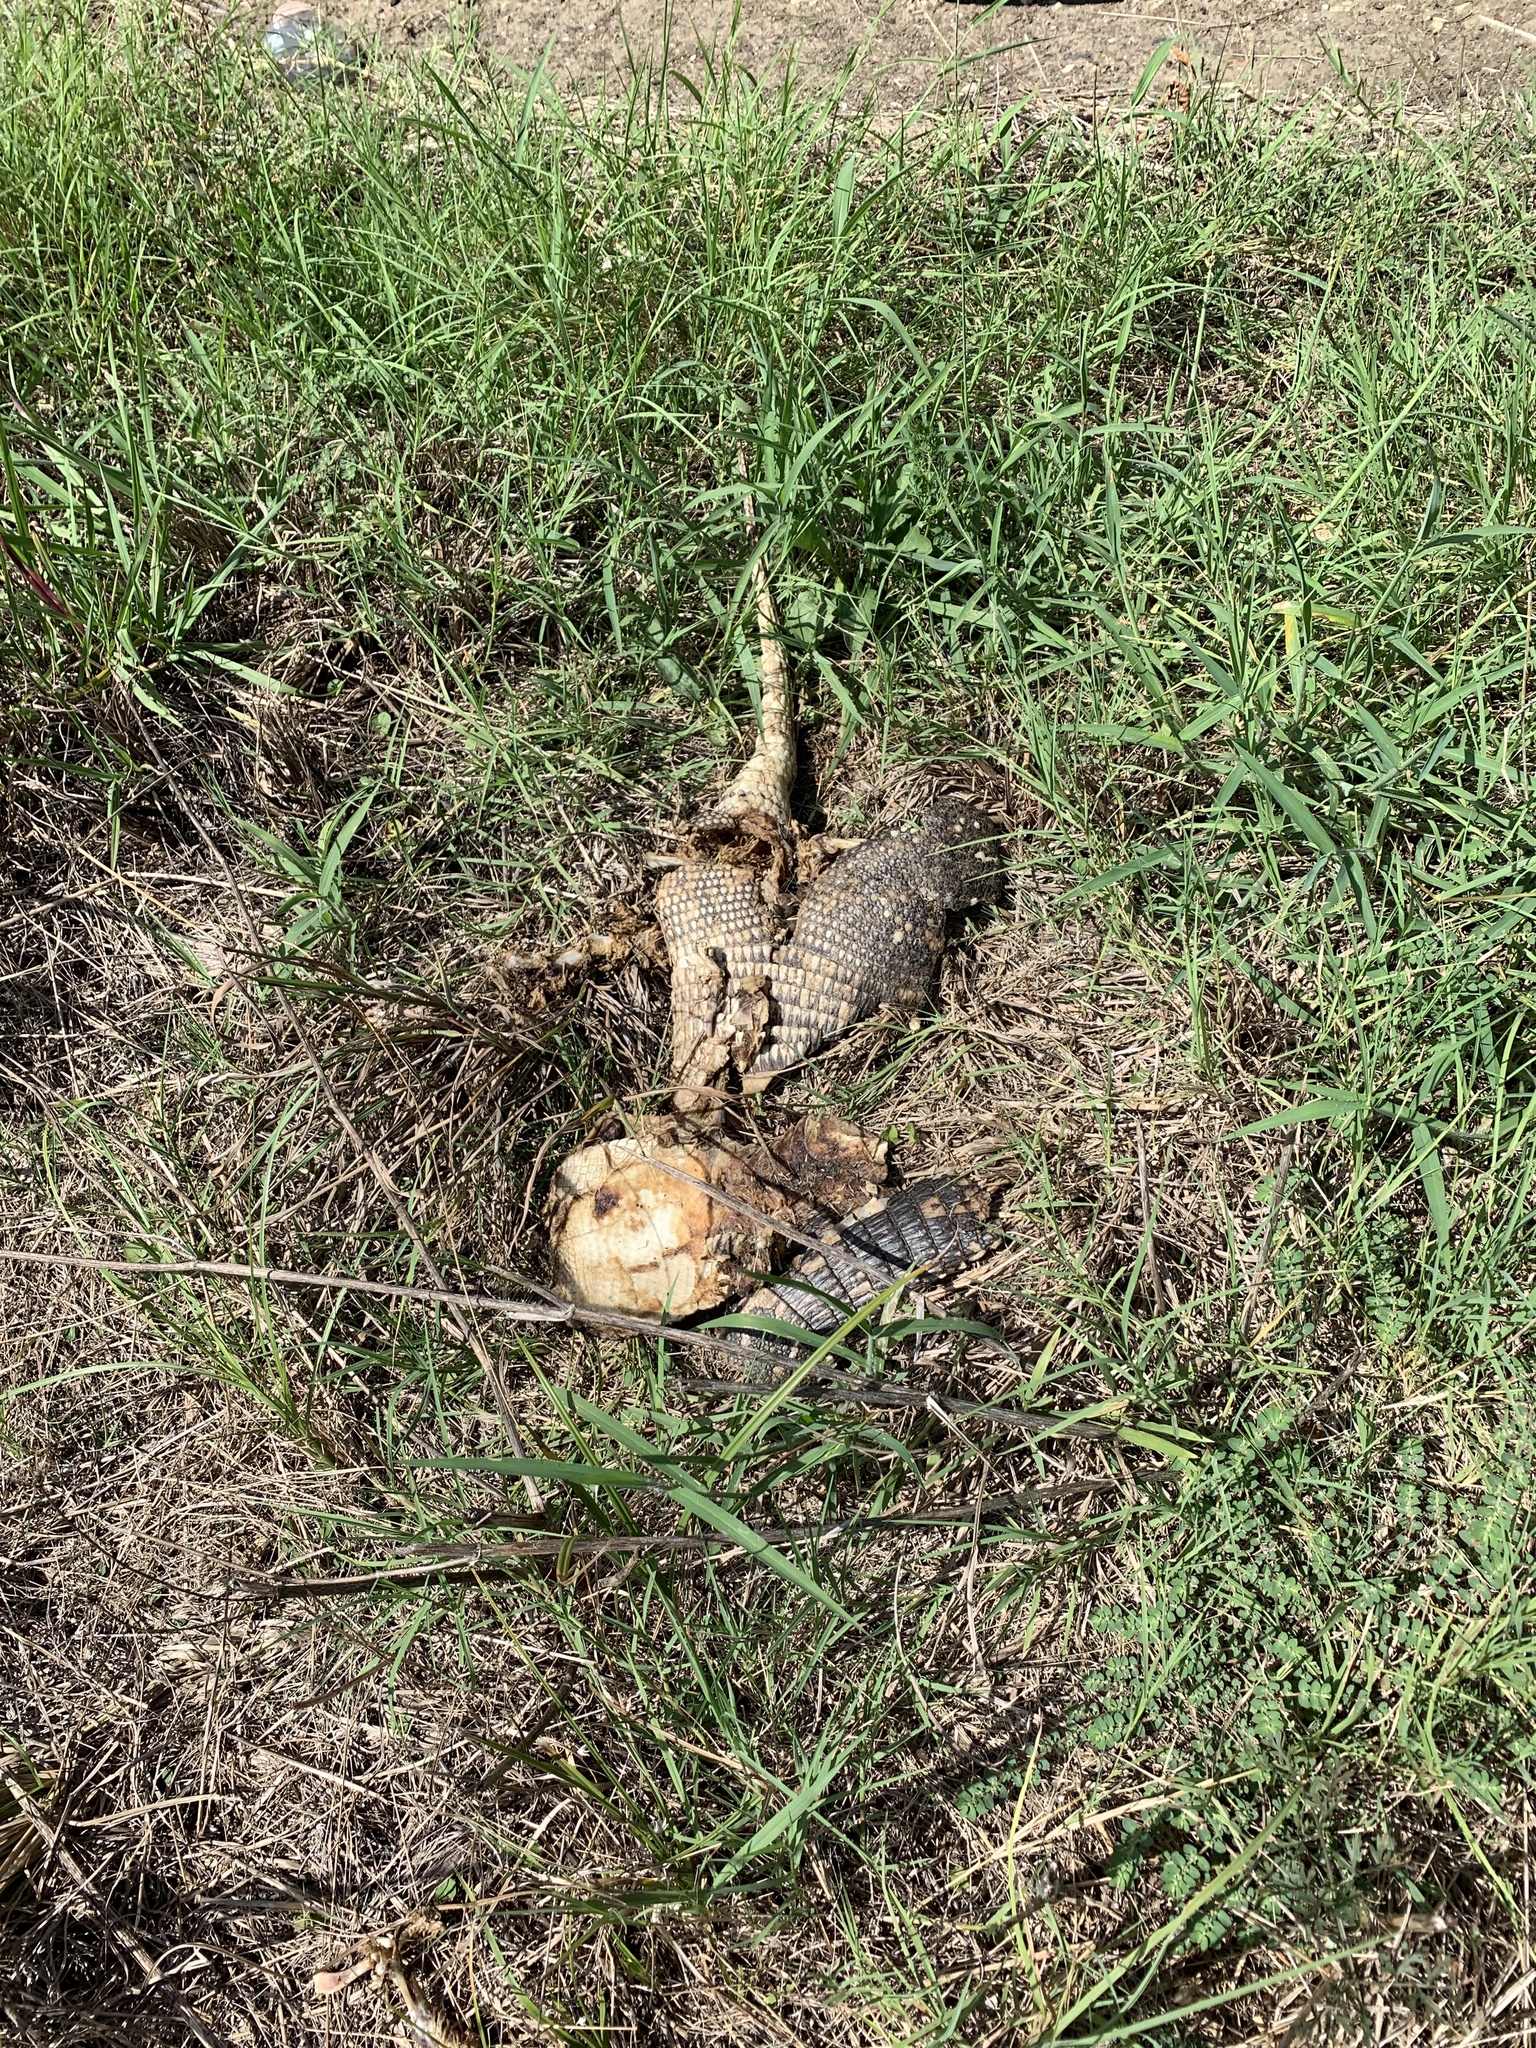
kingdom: Animalia
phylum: Chordata
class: Mammalia
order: Cingulata
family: Dasypodidae
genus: Dasypus
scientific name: Dasypus novemcinctus
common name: Nine-banded armadillo
